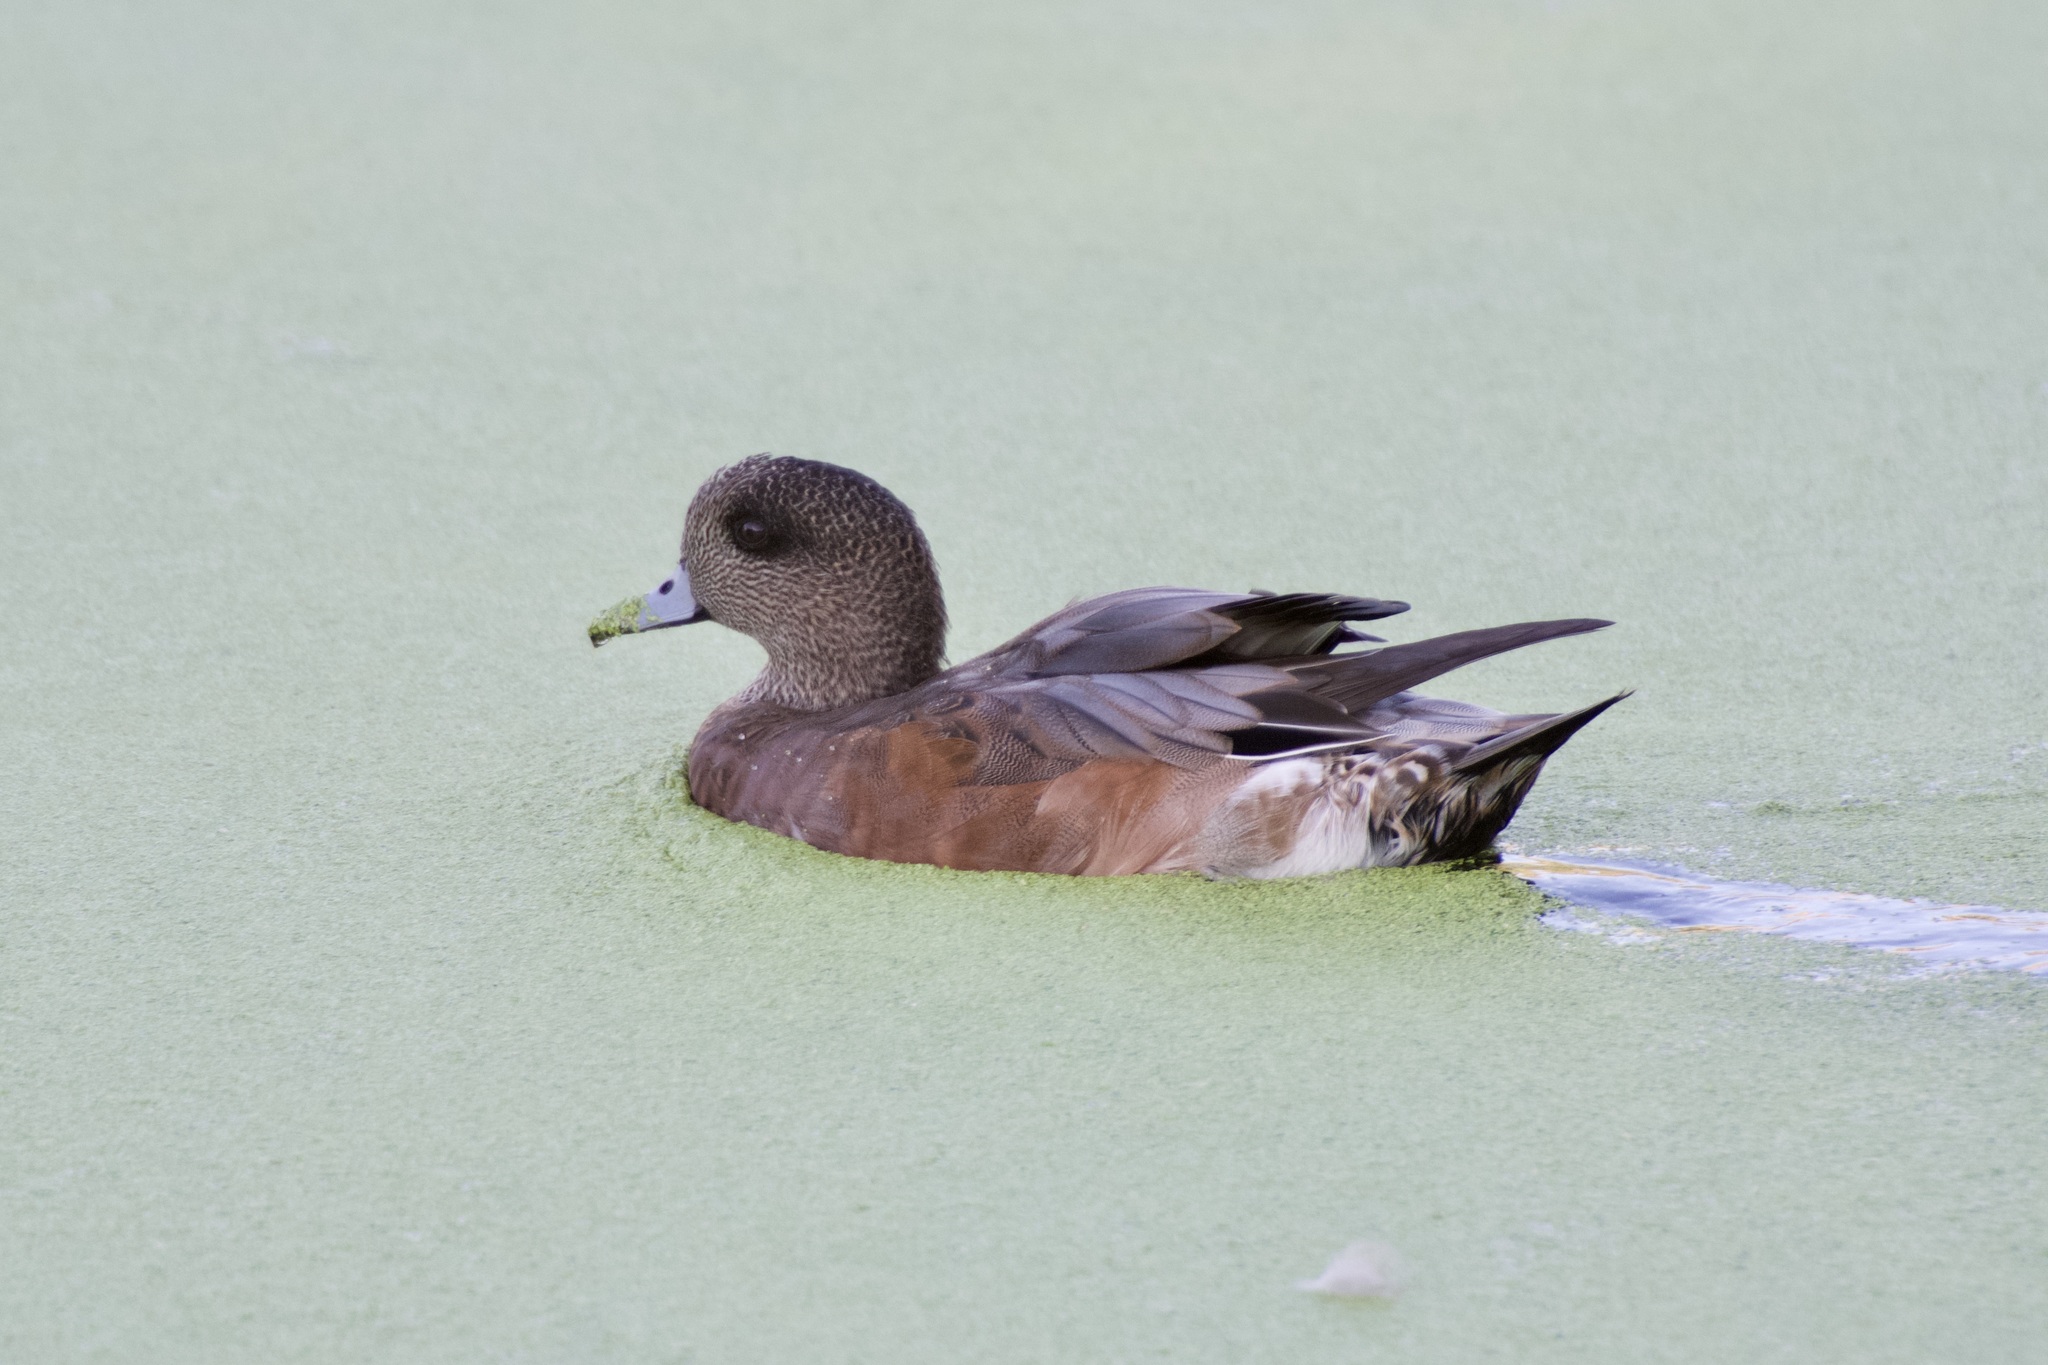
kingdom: Animalia
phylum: Chordata
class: Aves
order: Anseriformes
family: Anatidae
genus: Mareca
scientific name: Mareca americana
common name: American wigeon
